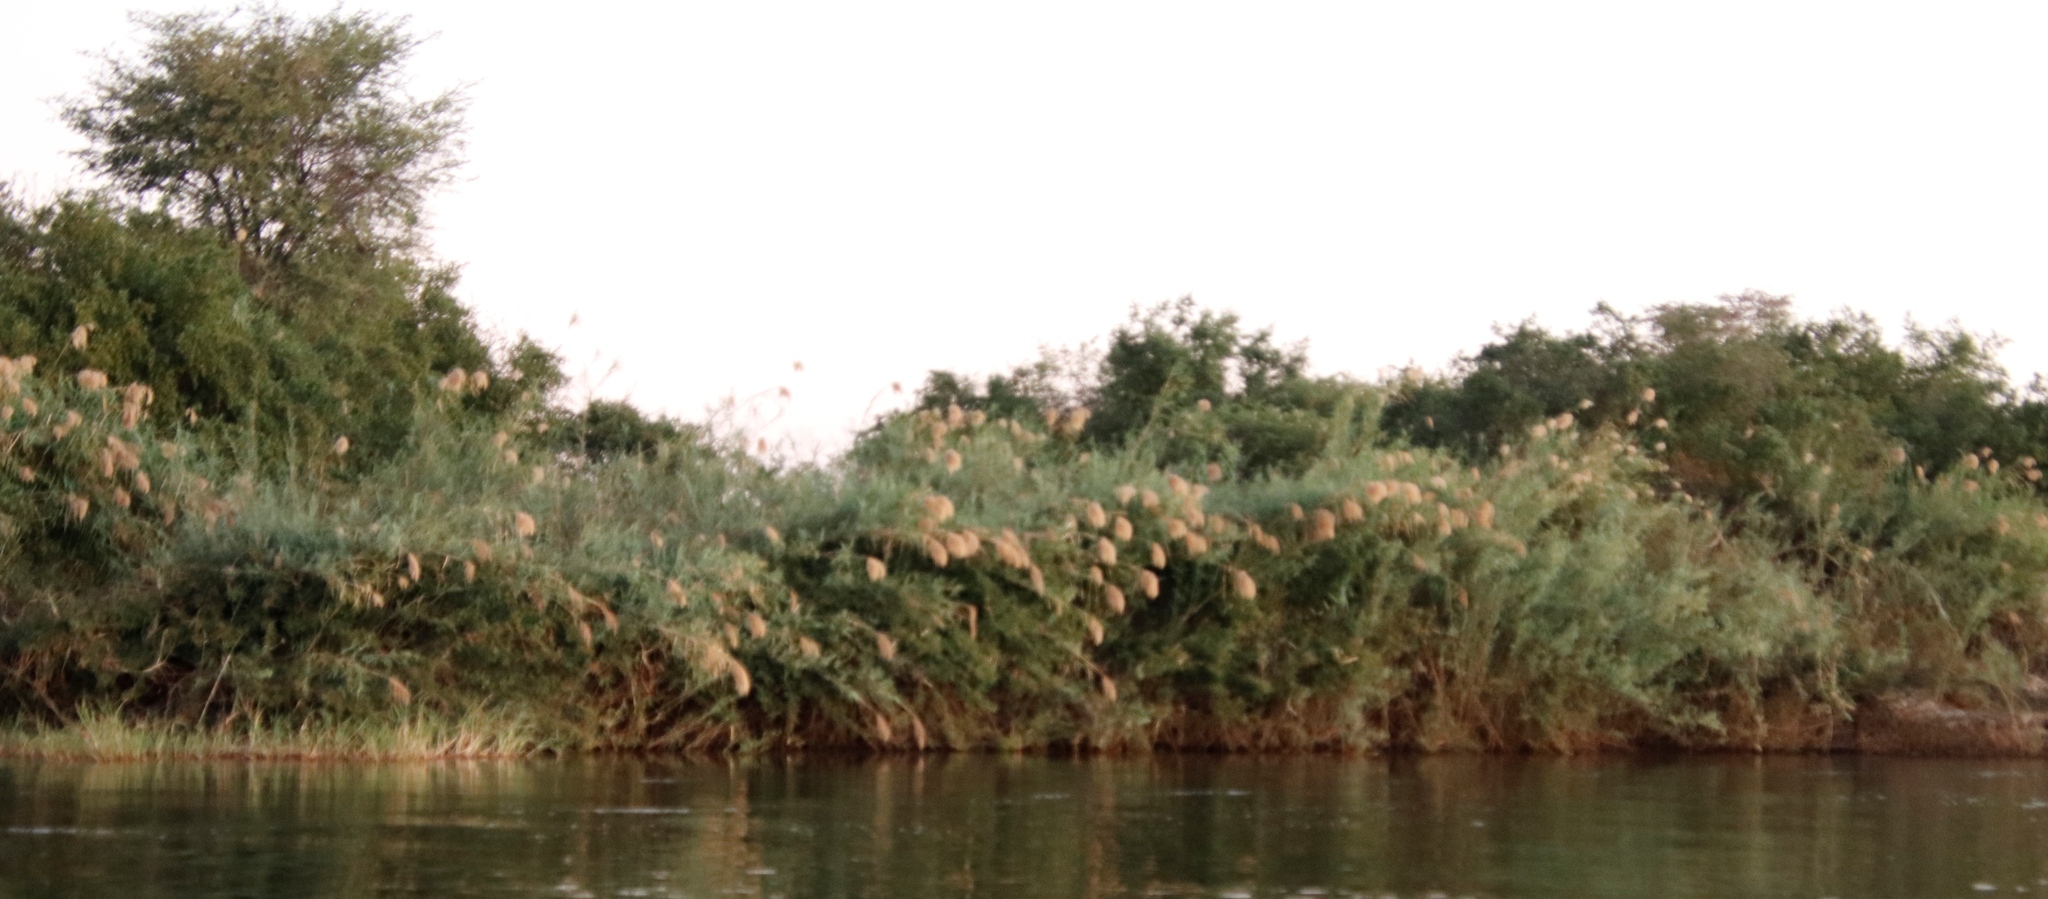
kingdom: Plantae
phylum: Tracheophyta
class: Liliopsida
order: Poales
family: Poaceae
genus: Phragmites
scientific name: Phragmites australis
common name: Common reed
